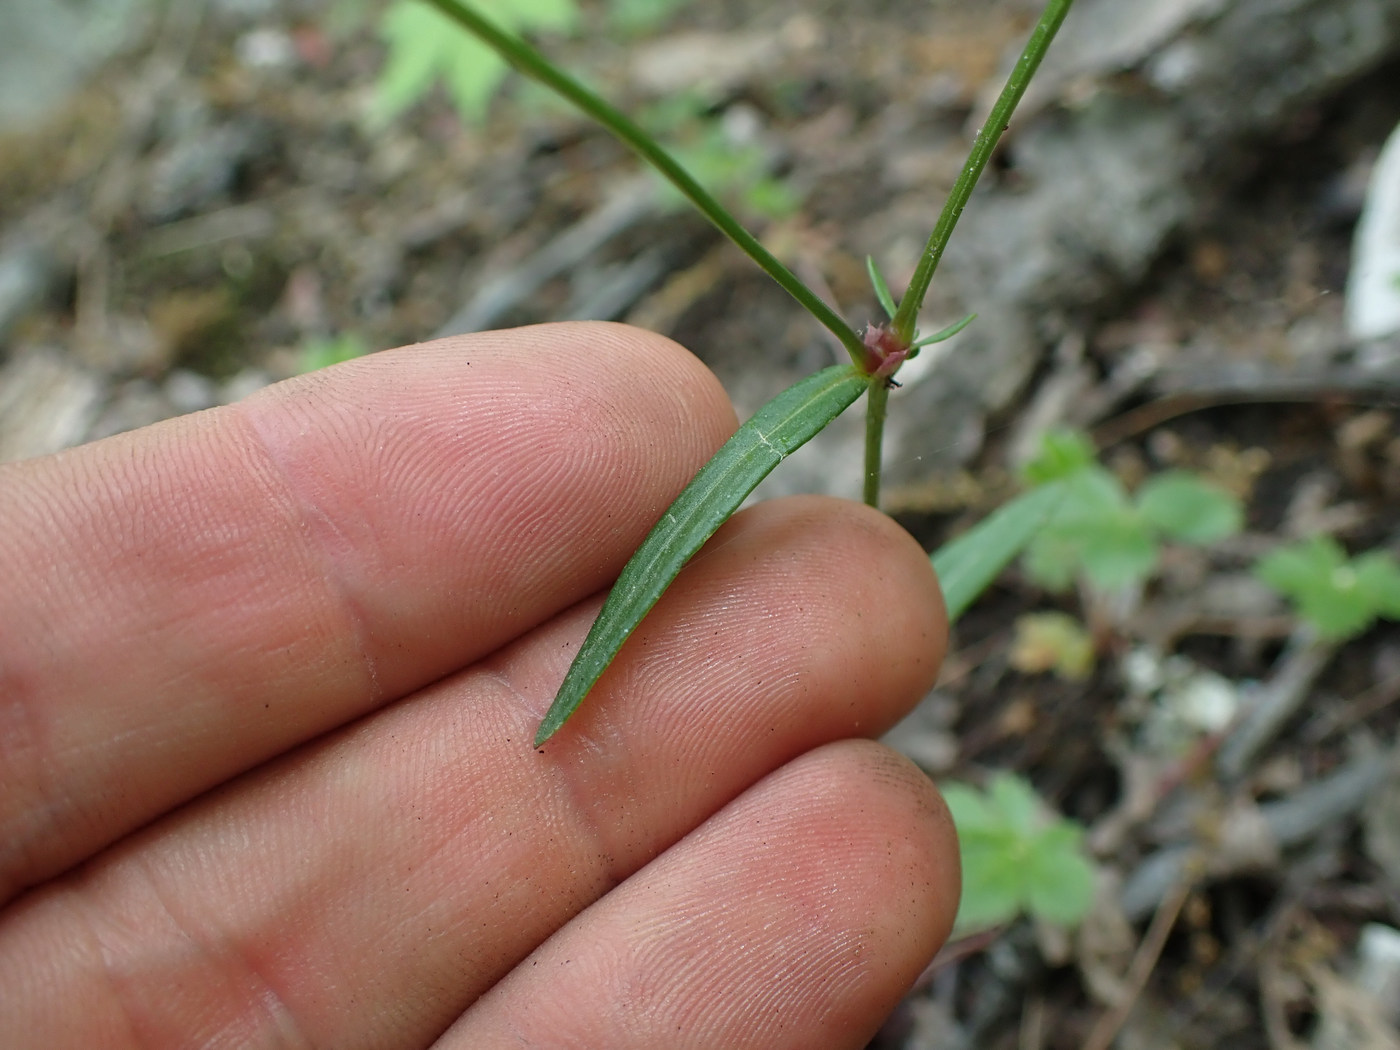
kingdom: Plantae
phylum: Tracheophyta
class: Magnoliopsida
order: Gentianales
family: Rubiaceae
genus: Houstonia
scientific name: Houstonia longifolia
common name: Long-leaved bluets
